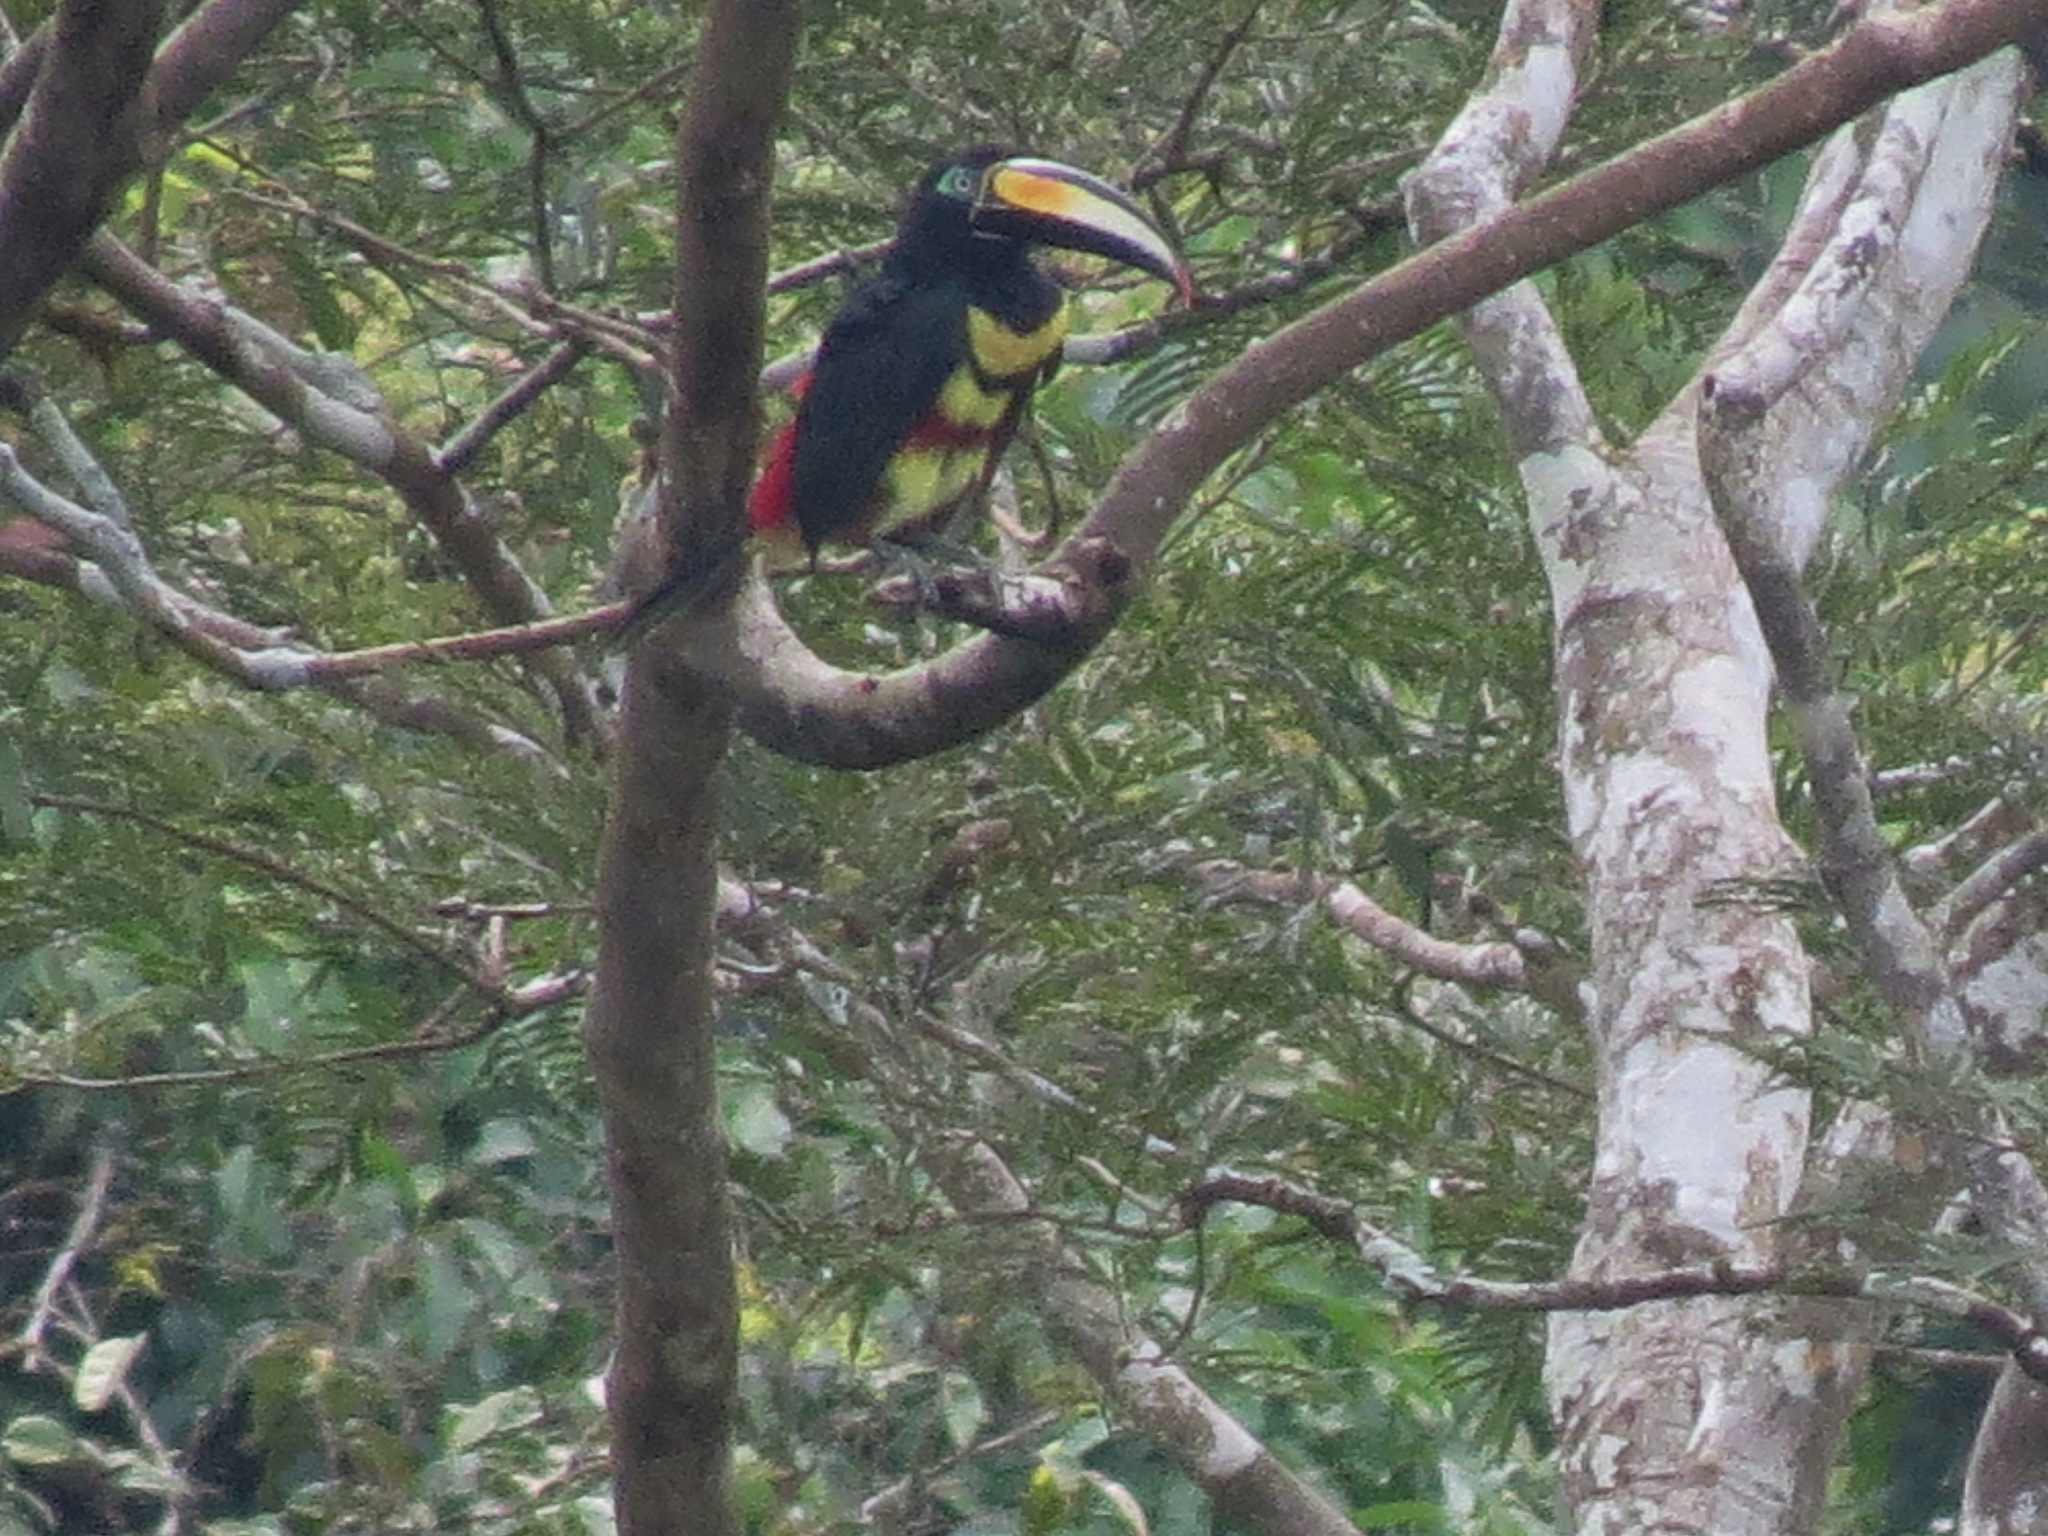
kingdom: Animalia
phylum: Chordata
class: Aves
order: Piciformes
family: Ramphastidae
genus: Pteroglossus
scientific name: Pteroglossus pluricinctus
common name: Many-banded aracari
